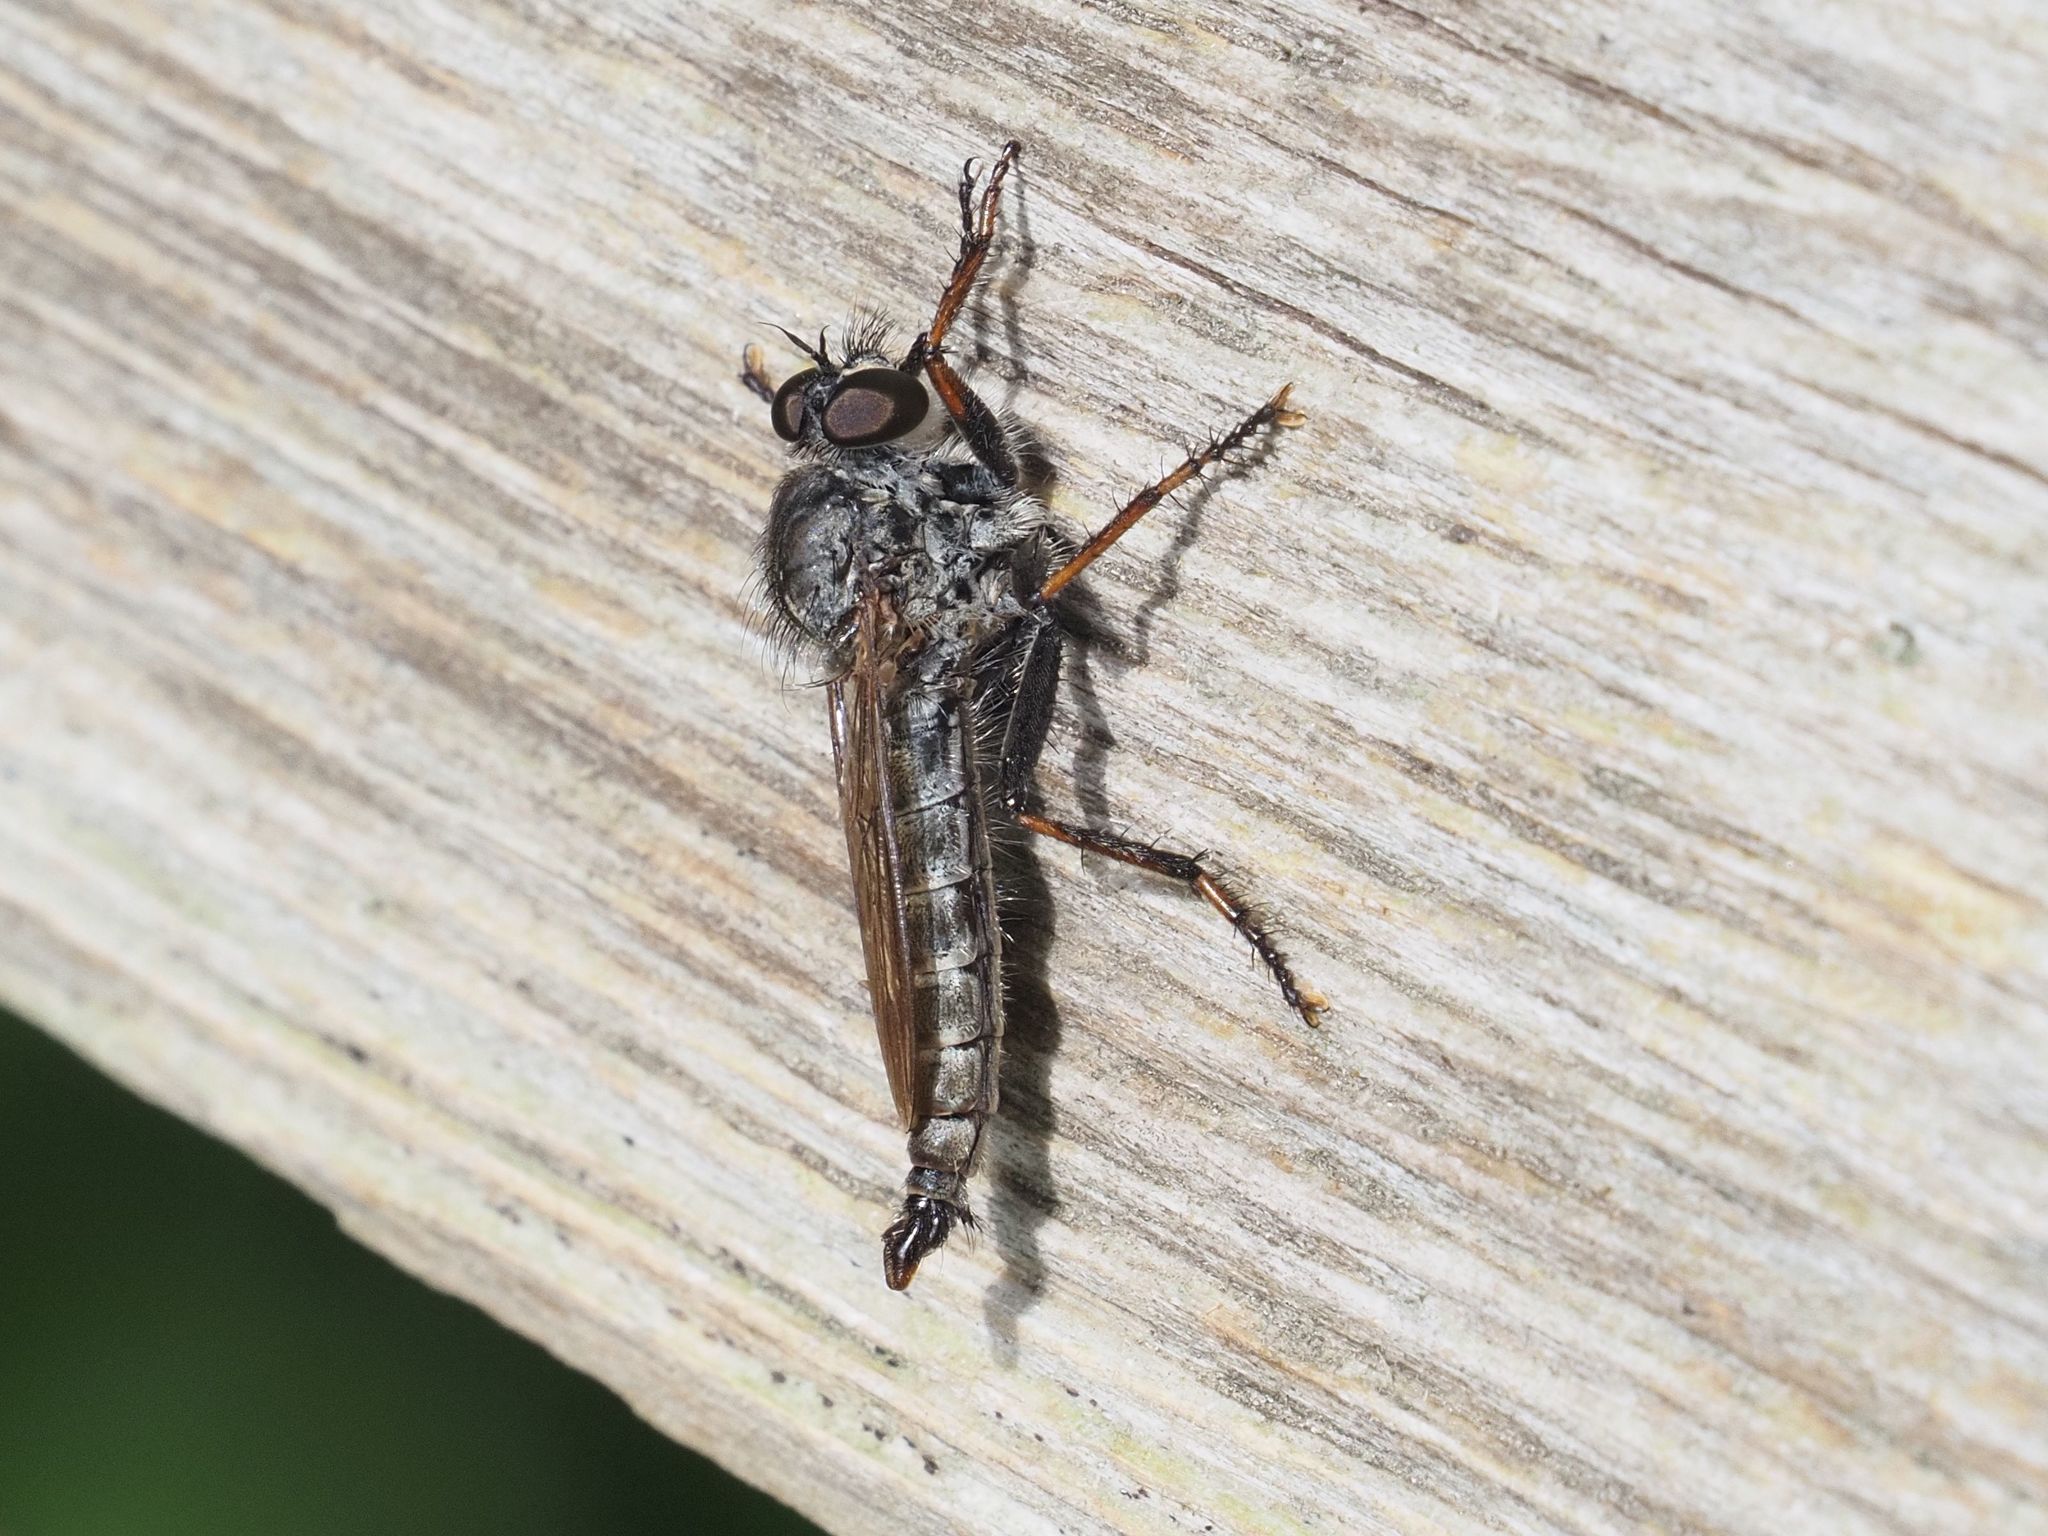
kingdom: Animalia
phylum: Arthropoda
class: Insecta
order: Diptera
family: Asilidae
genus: Machimus
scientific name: Machimus atricapillus
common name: Kite-tailed robberfly
